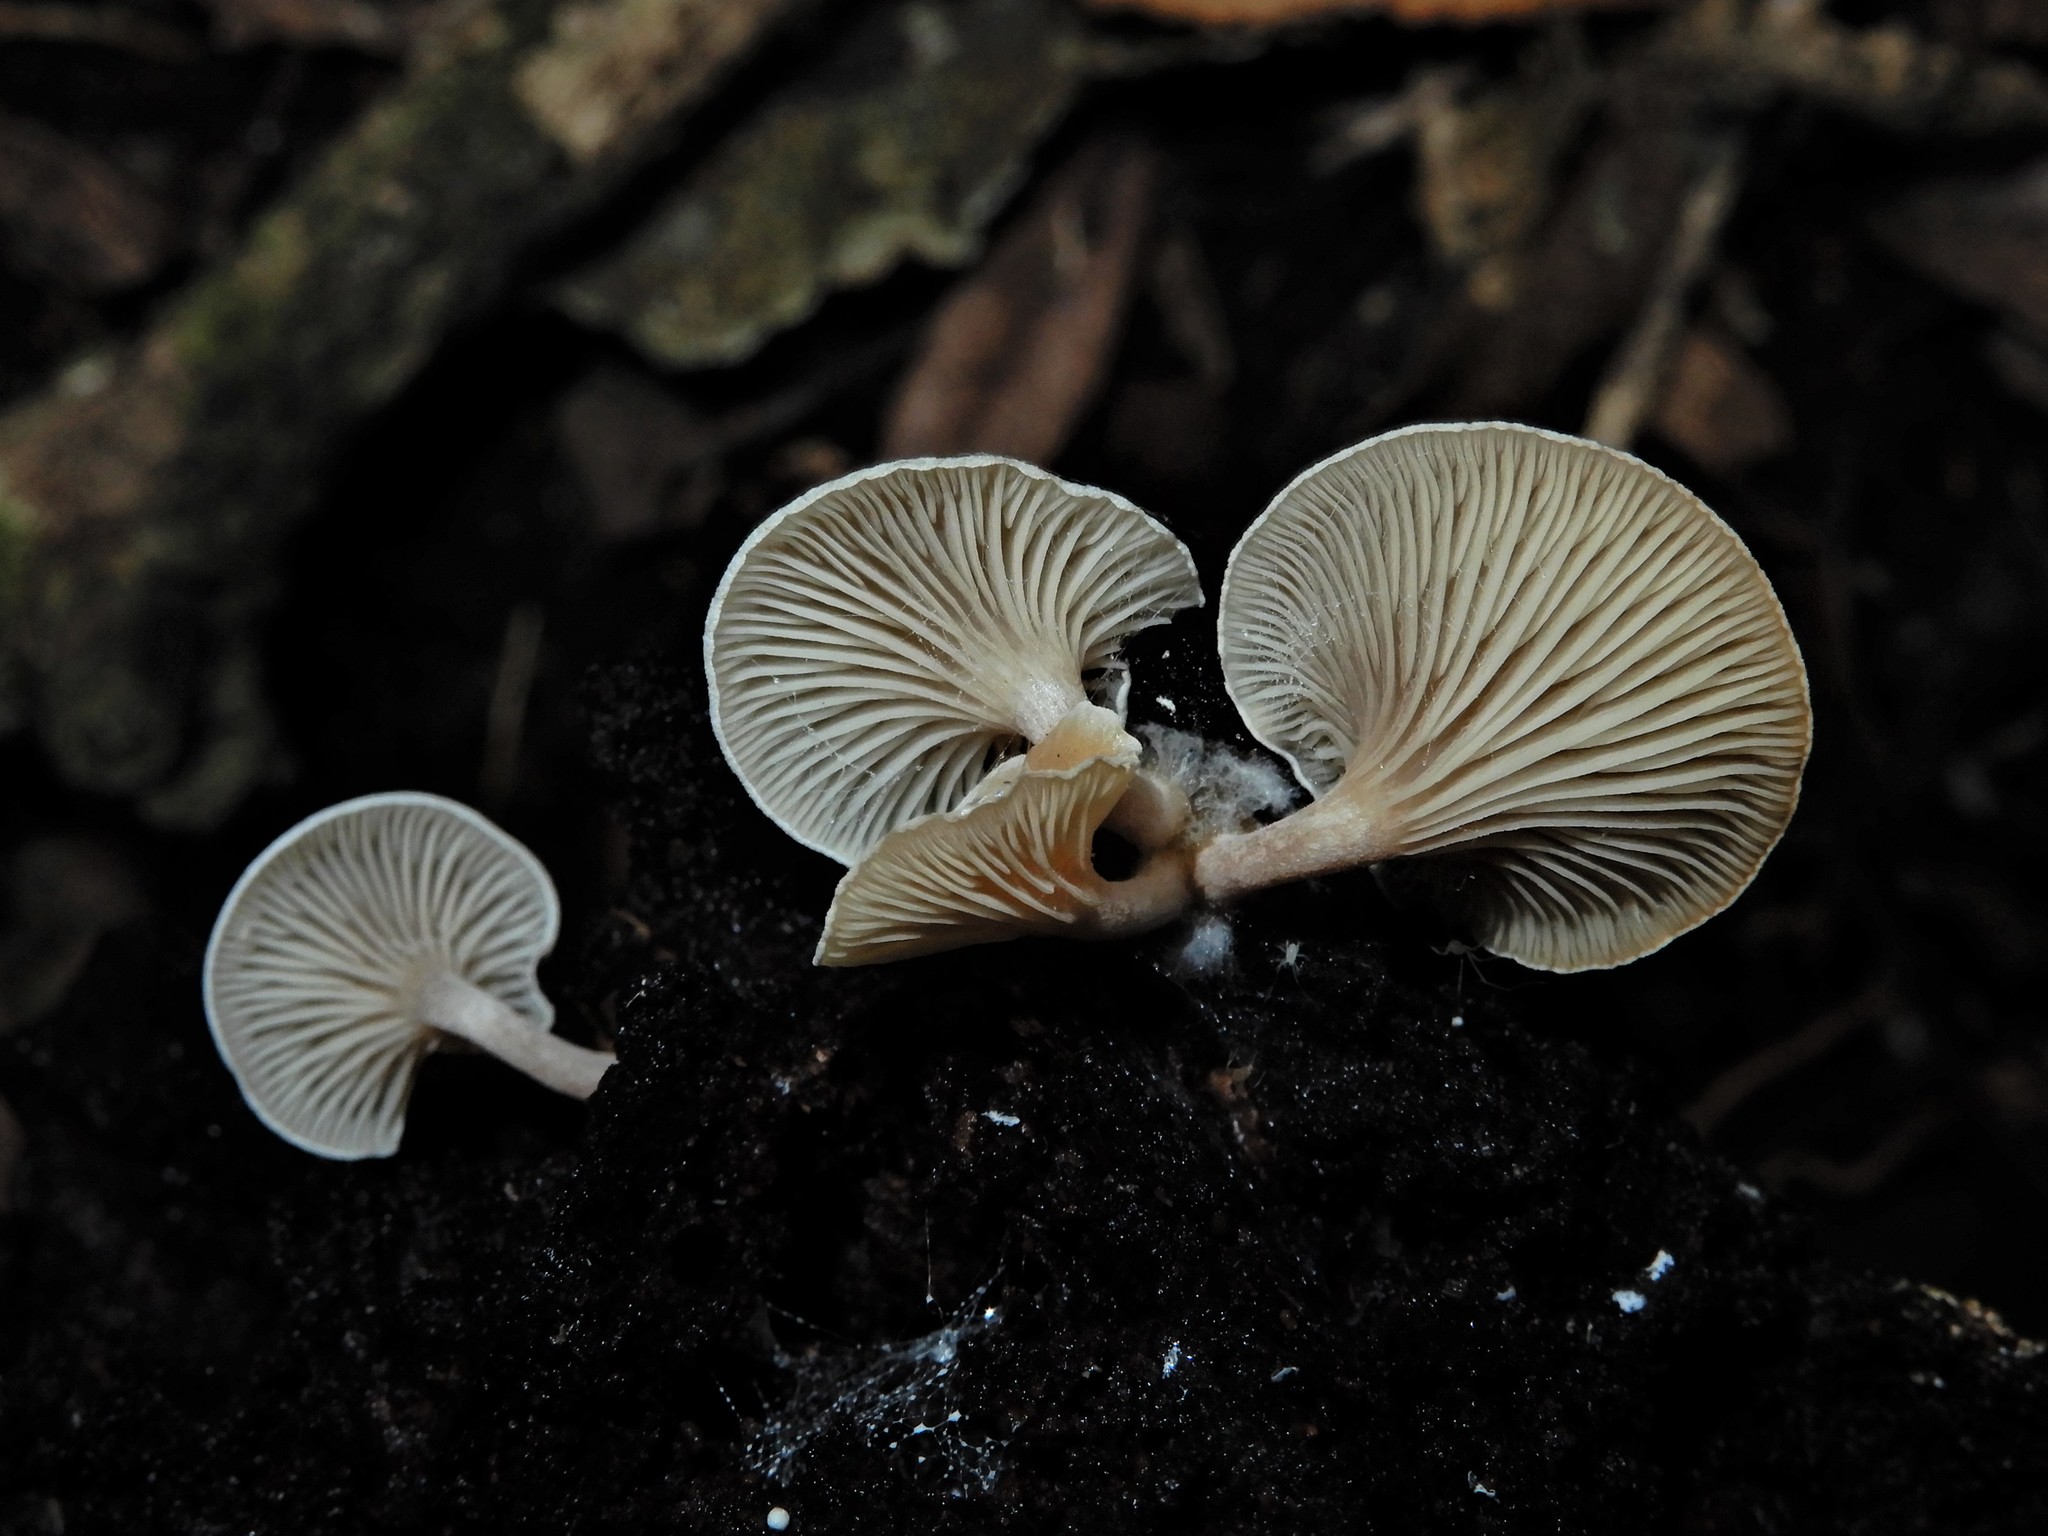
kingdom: Fungi
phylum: Basidiomycota
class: Agaricomycetes
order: Agaricales
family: Tricholomataceae
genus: Clitocybe
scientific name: Clitocybe wellingtonensis
